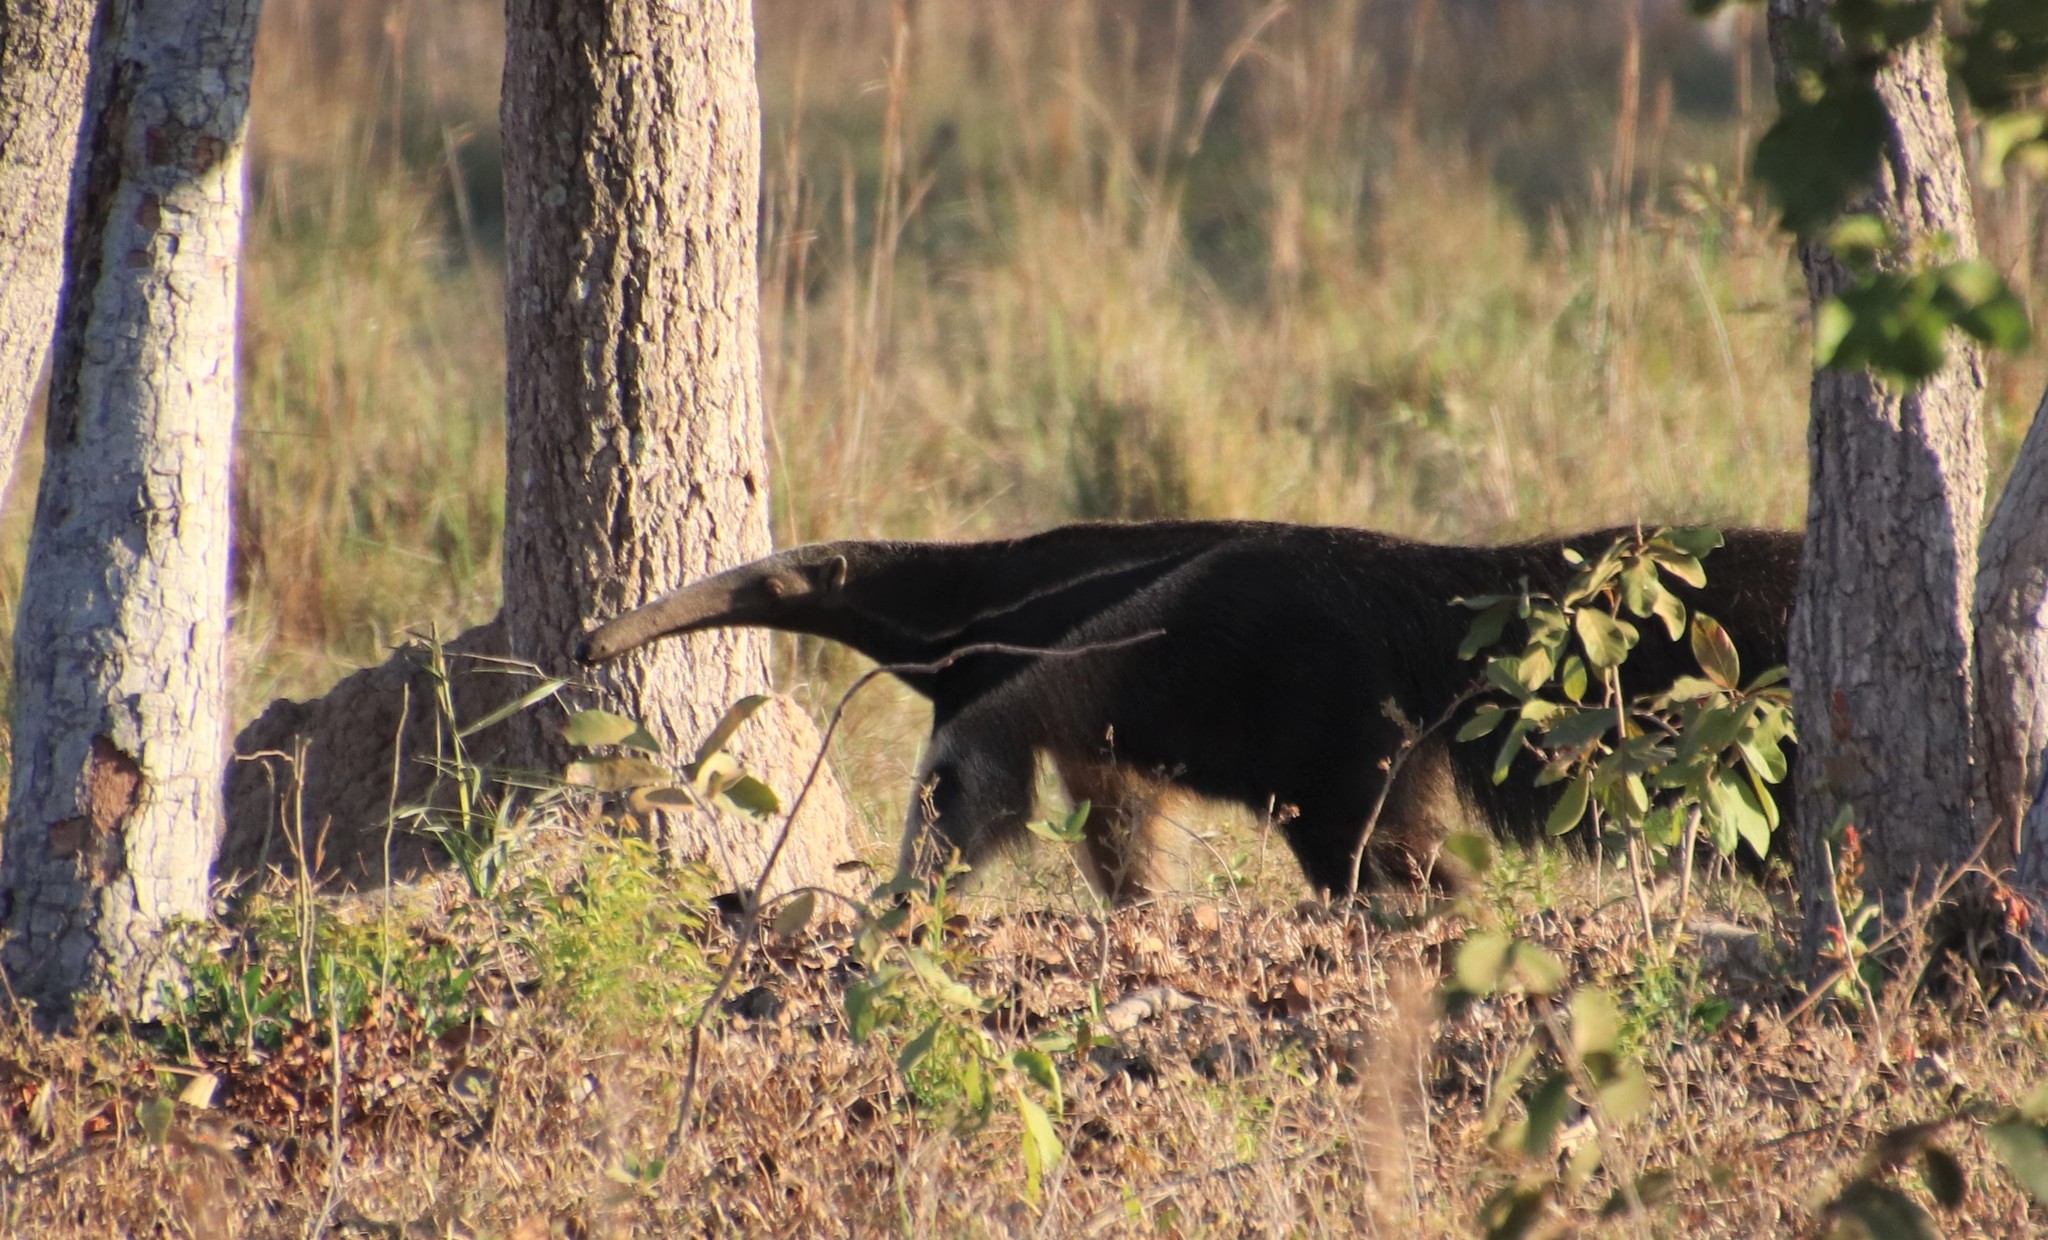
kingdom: Animalia
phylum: Chordata
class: Mammalia
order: Pilosa
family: Myrmecophagidae
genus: Myrmecophaga
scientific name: Myrmecophaga tridactyla
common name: Giant anteater
